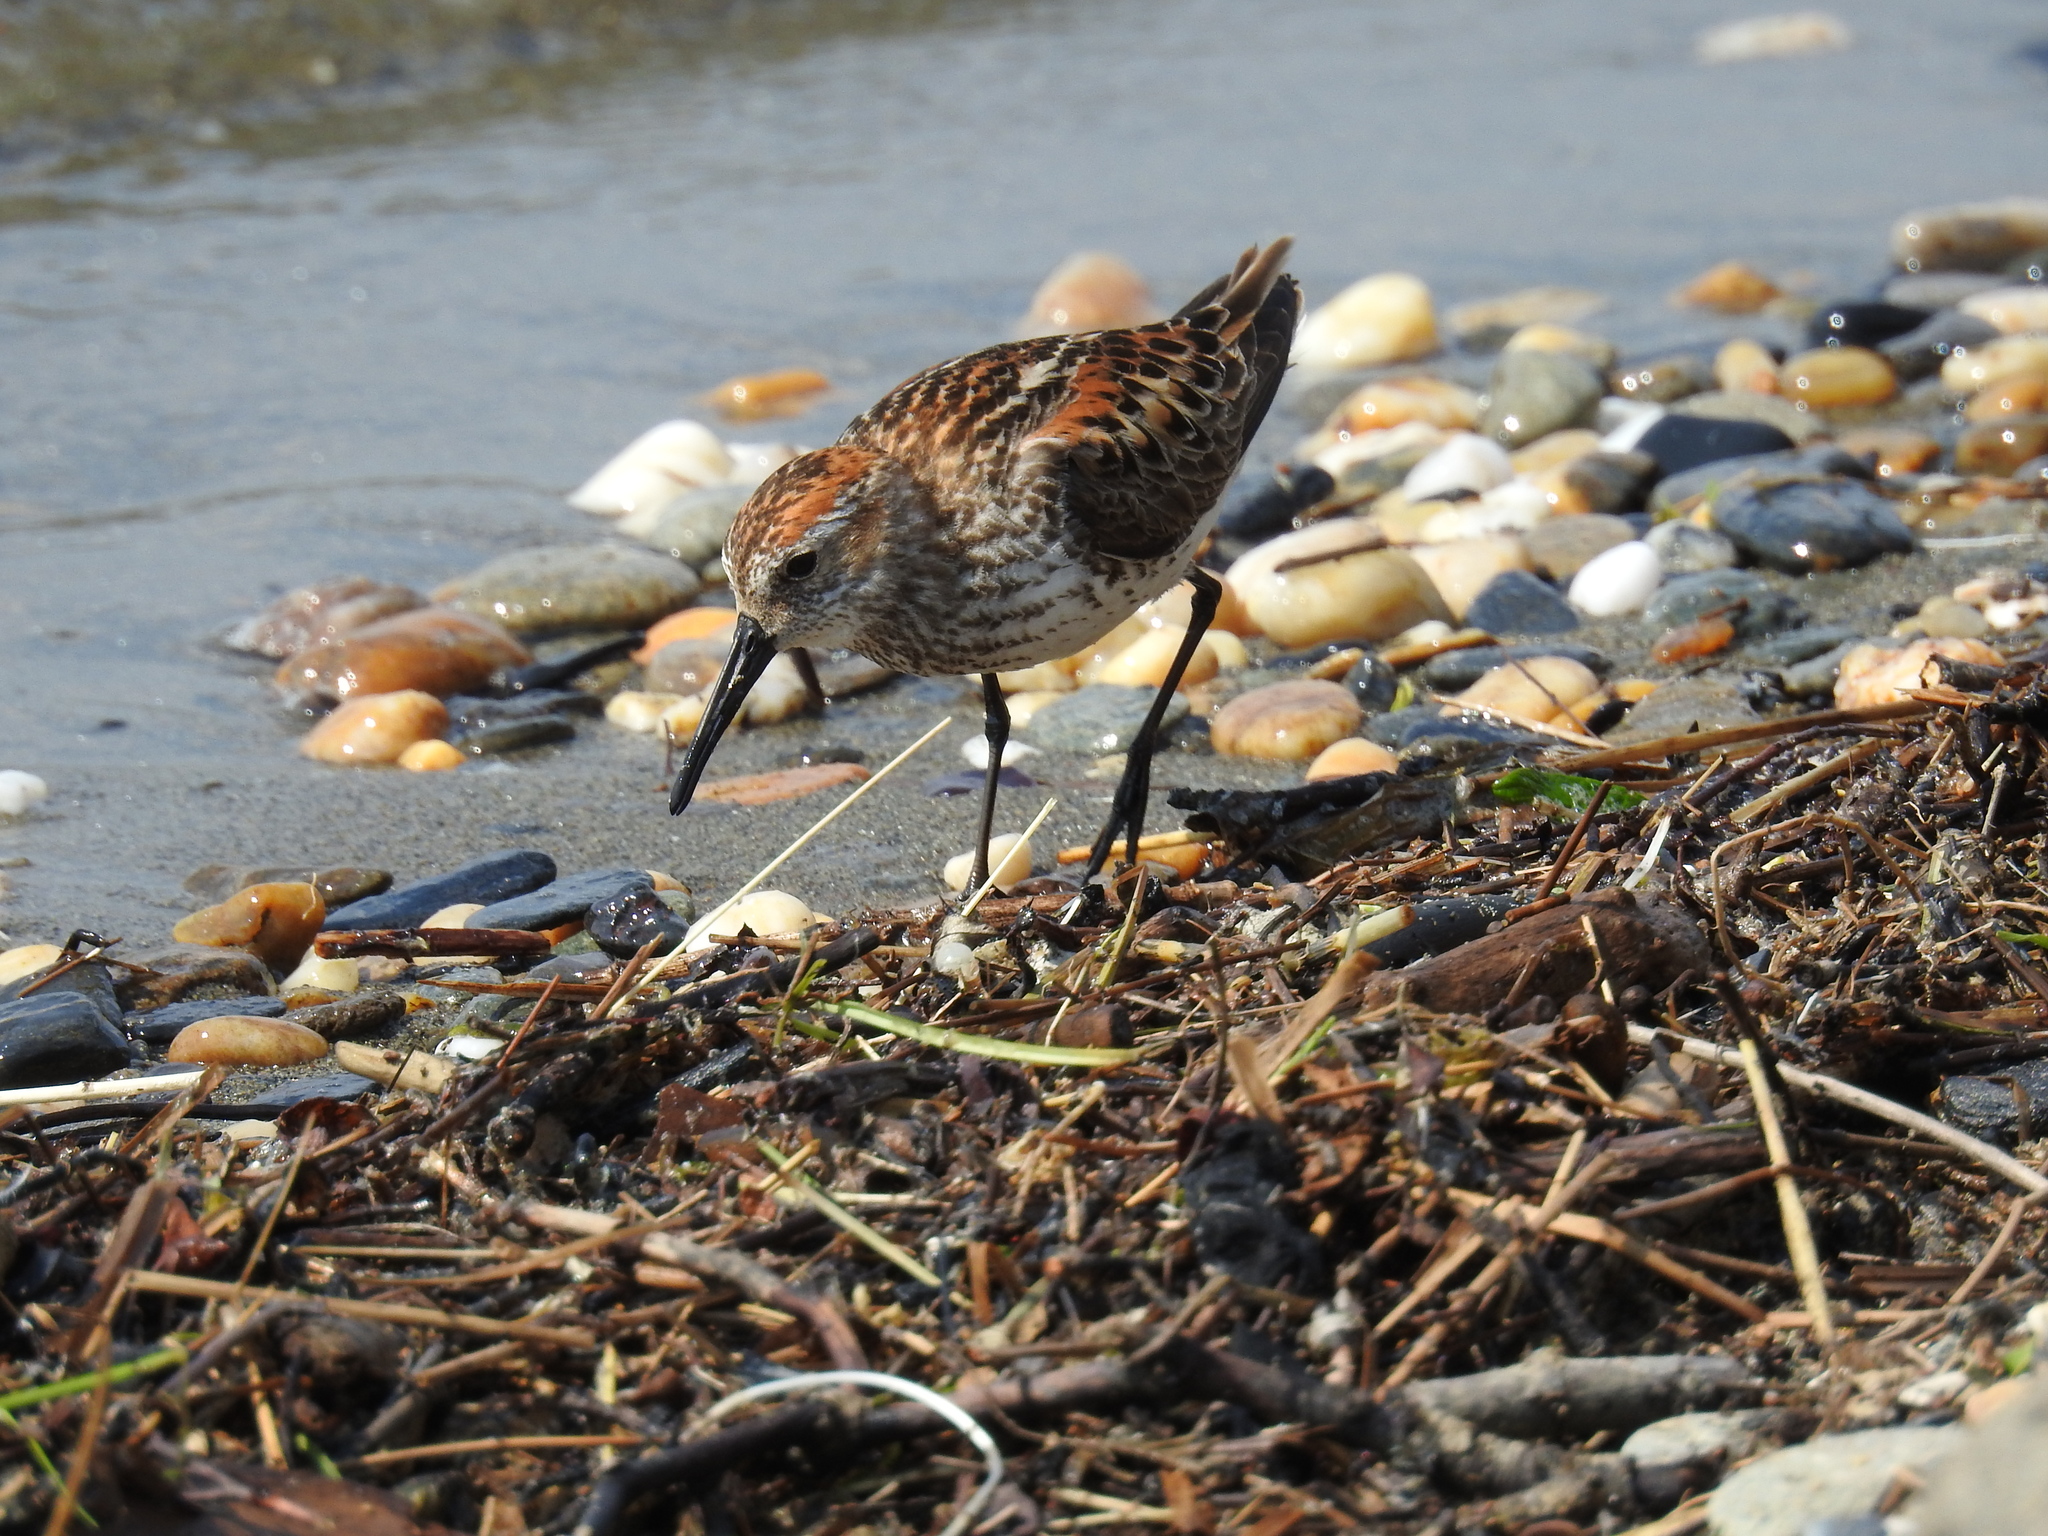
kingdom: Animalia
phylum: Chordata
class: Aves
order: Charadriiformes
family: Scolopacidae
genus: Calidris
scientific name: Calidris mauri
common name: Western sandpiper
